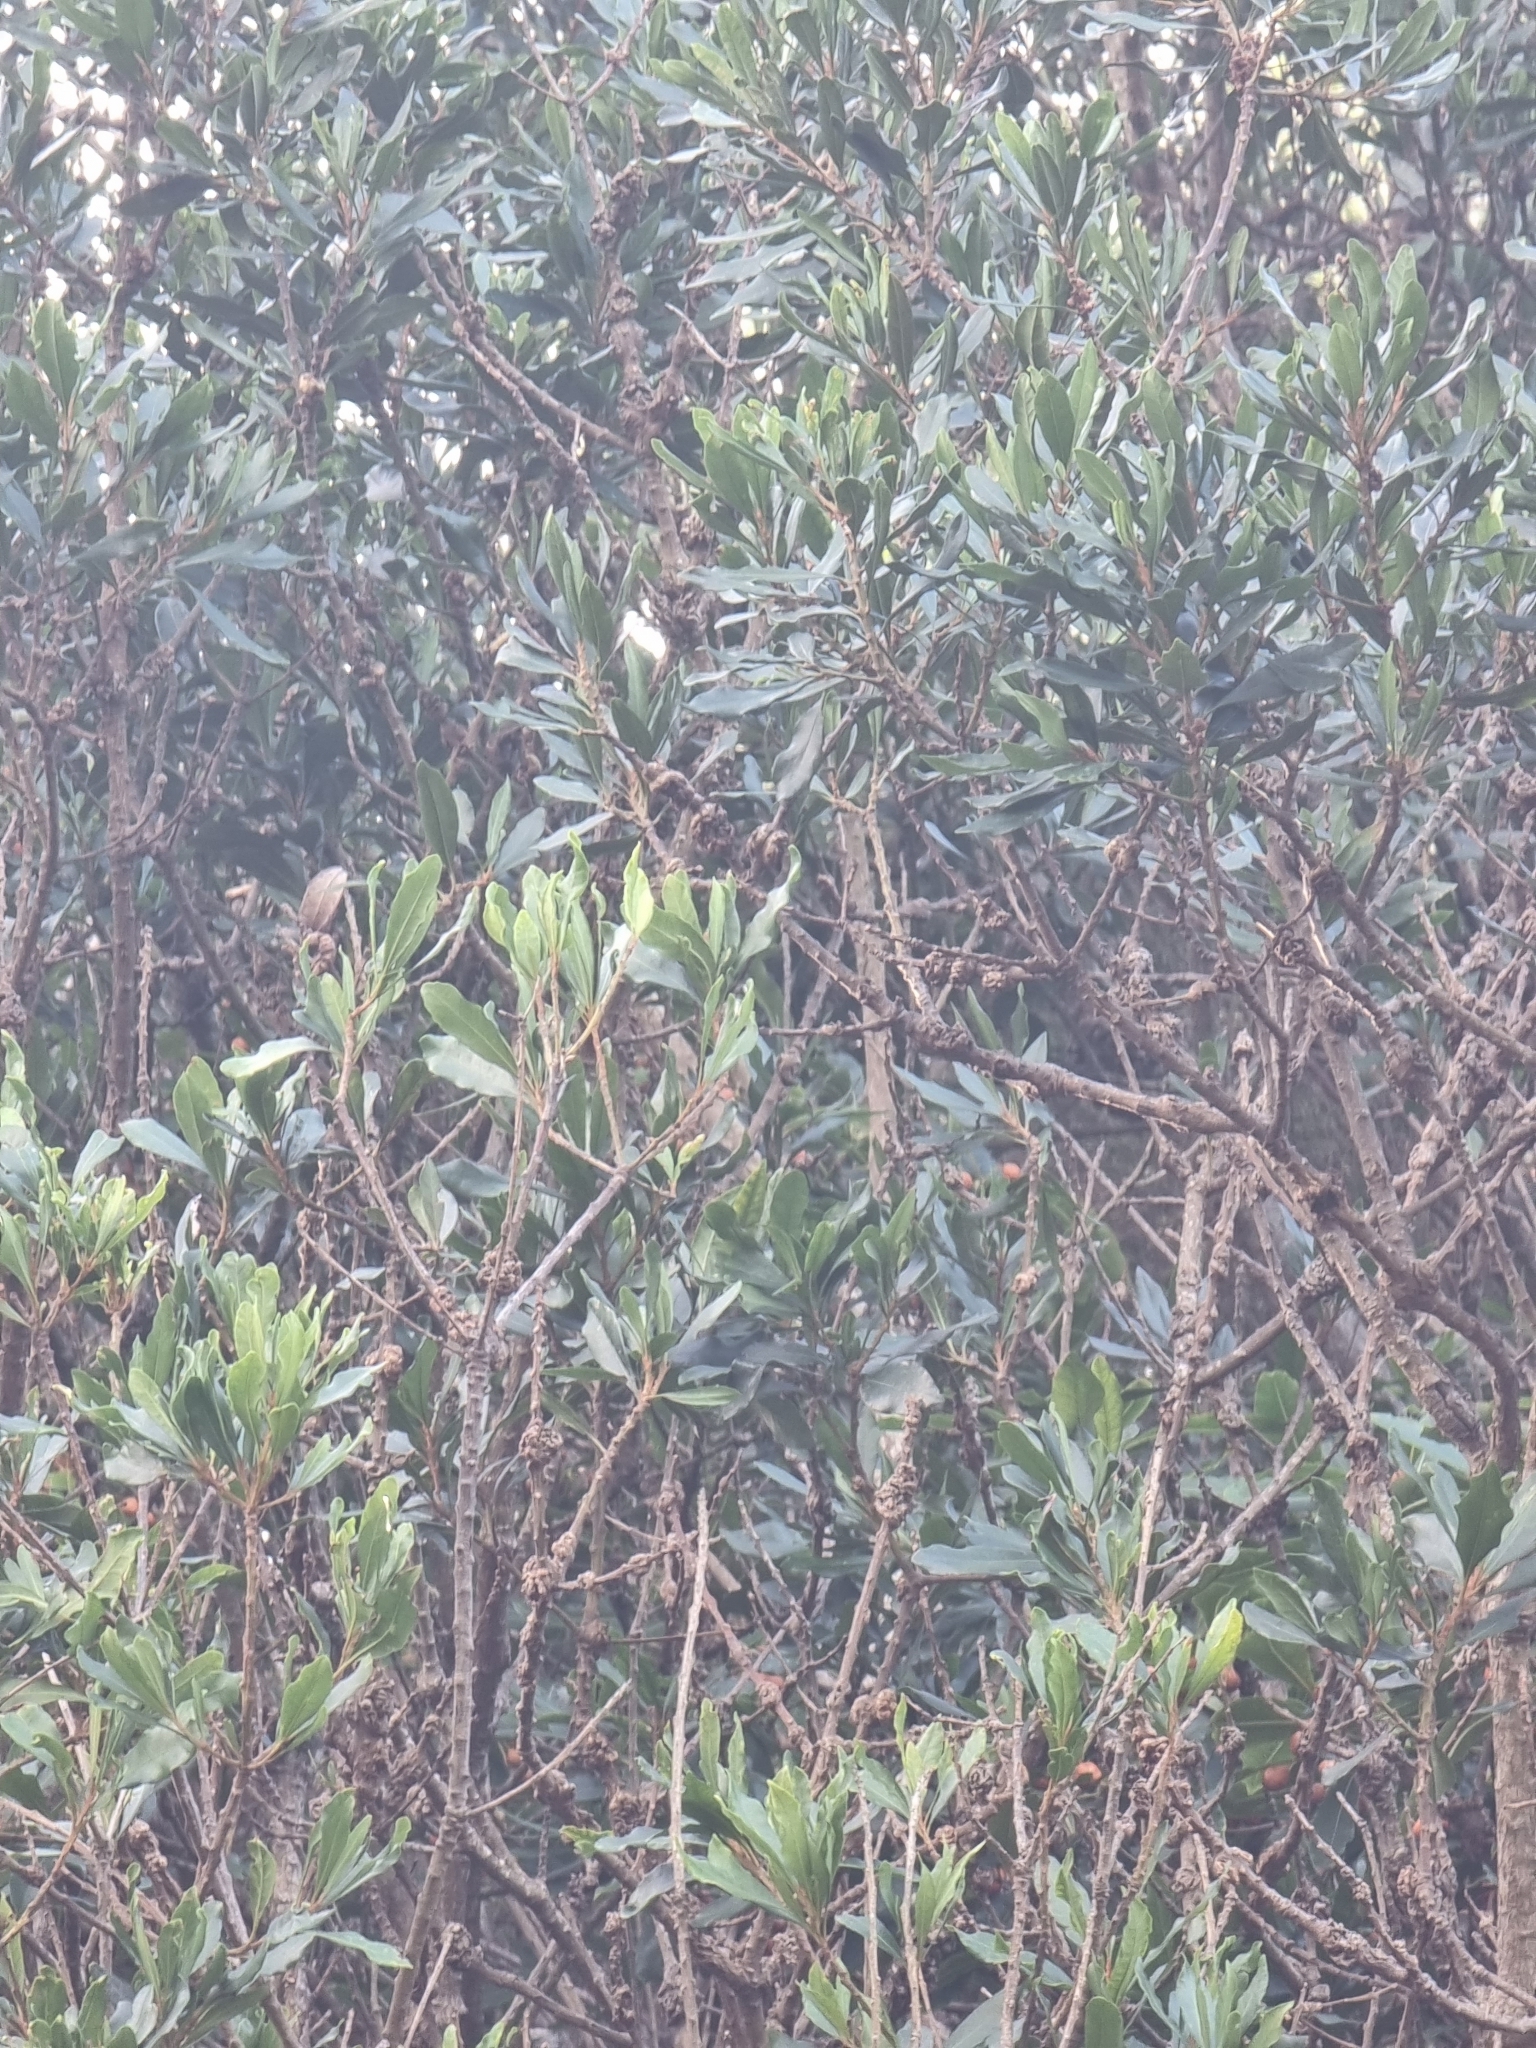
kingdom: Plantae
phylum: Tracheophyta
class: Magnoliopsida
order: Fagales
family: Myricaceae
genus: Morella
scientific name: Morella faya
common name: Firetree
